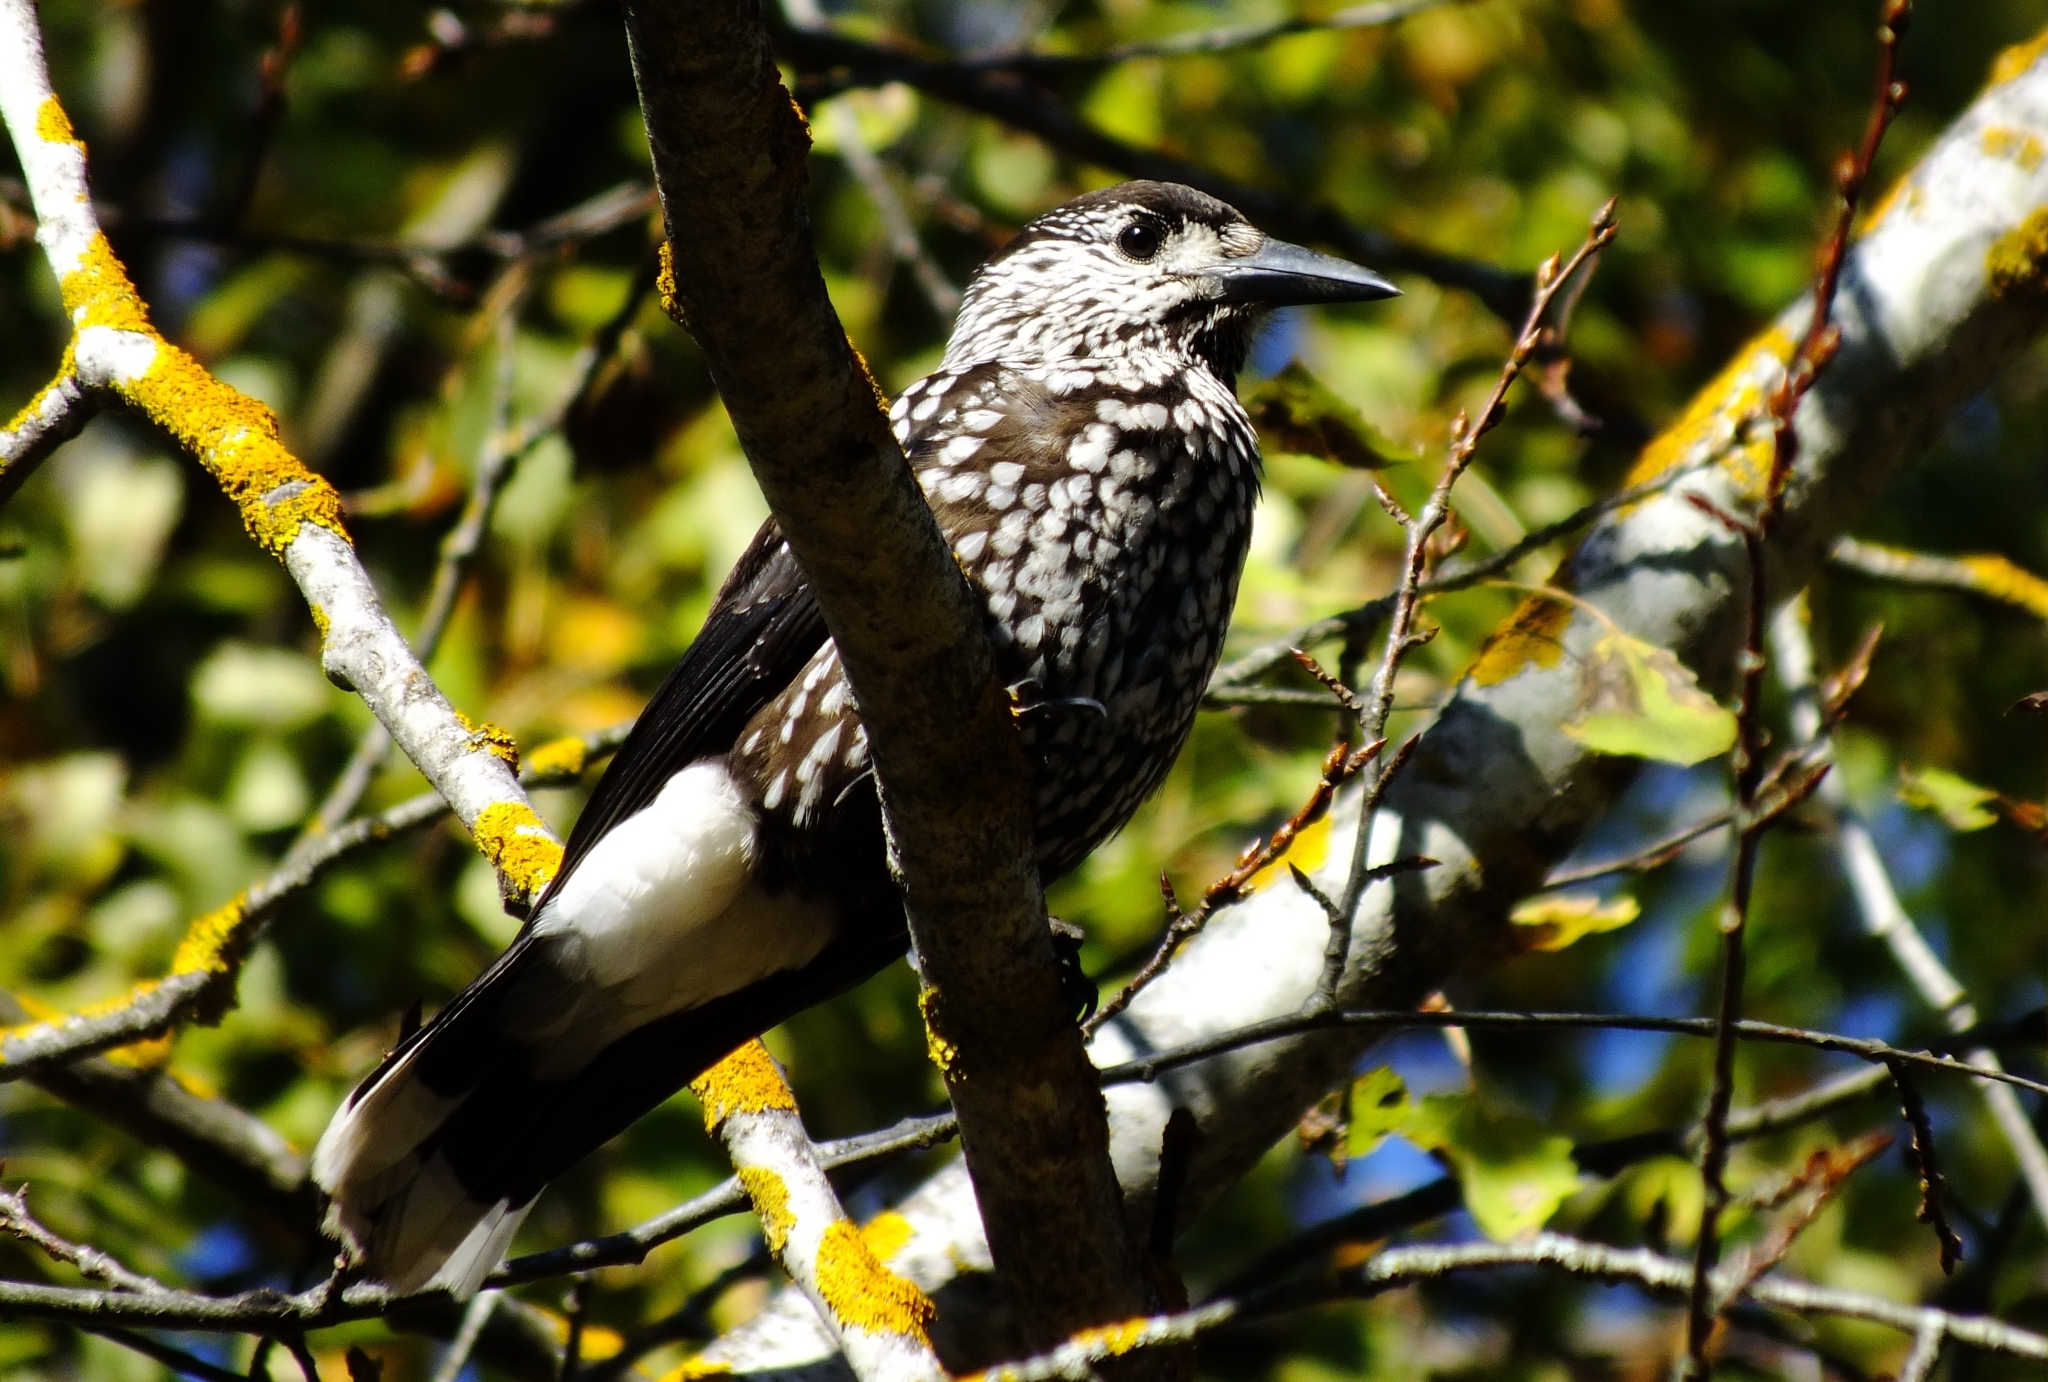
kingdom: Animalia
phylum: Chordata
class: Aves
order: Passeriformes
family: Corvidae
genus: Nucifraga
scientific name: Nucifraga caryocatactes
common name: Spotted nutcracker
